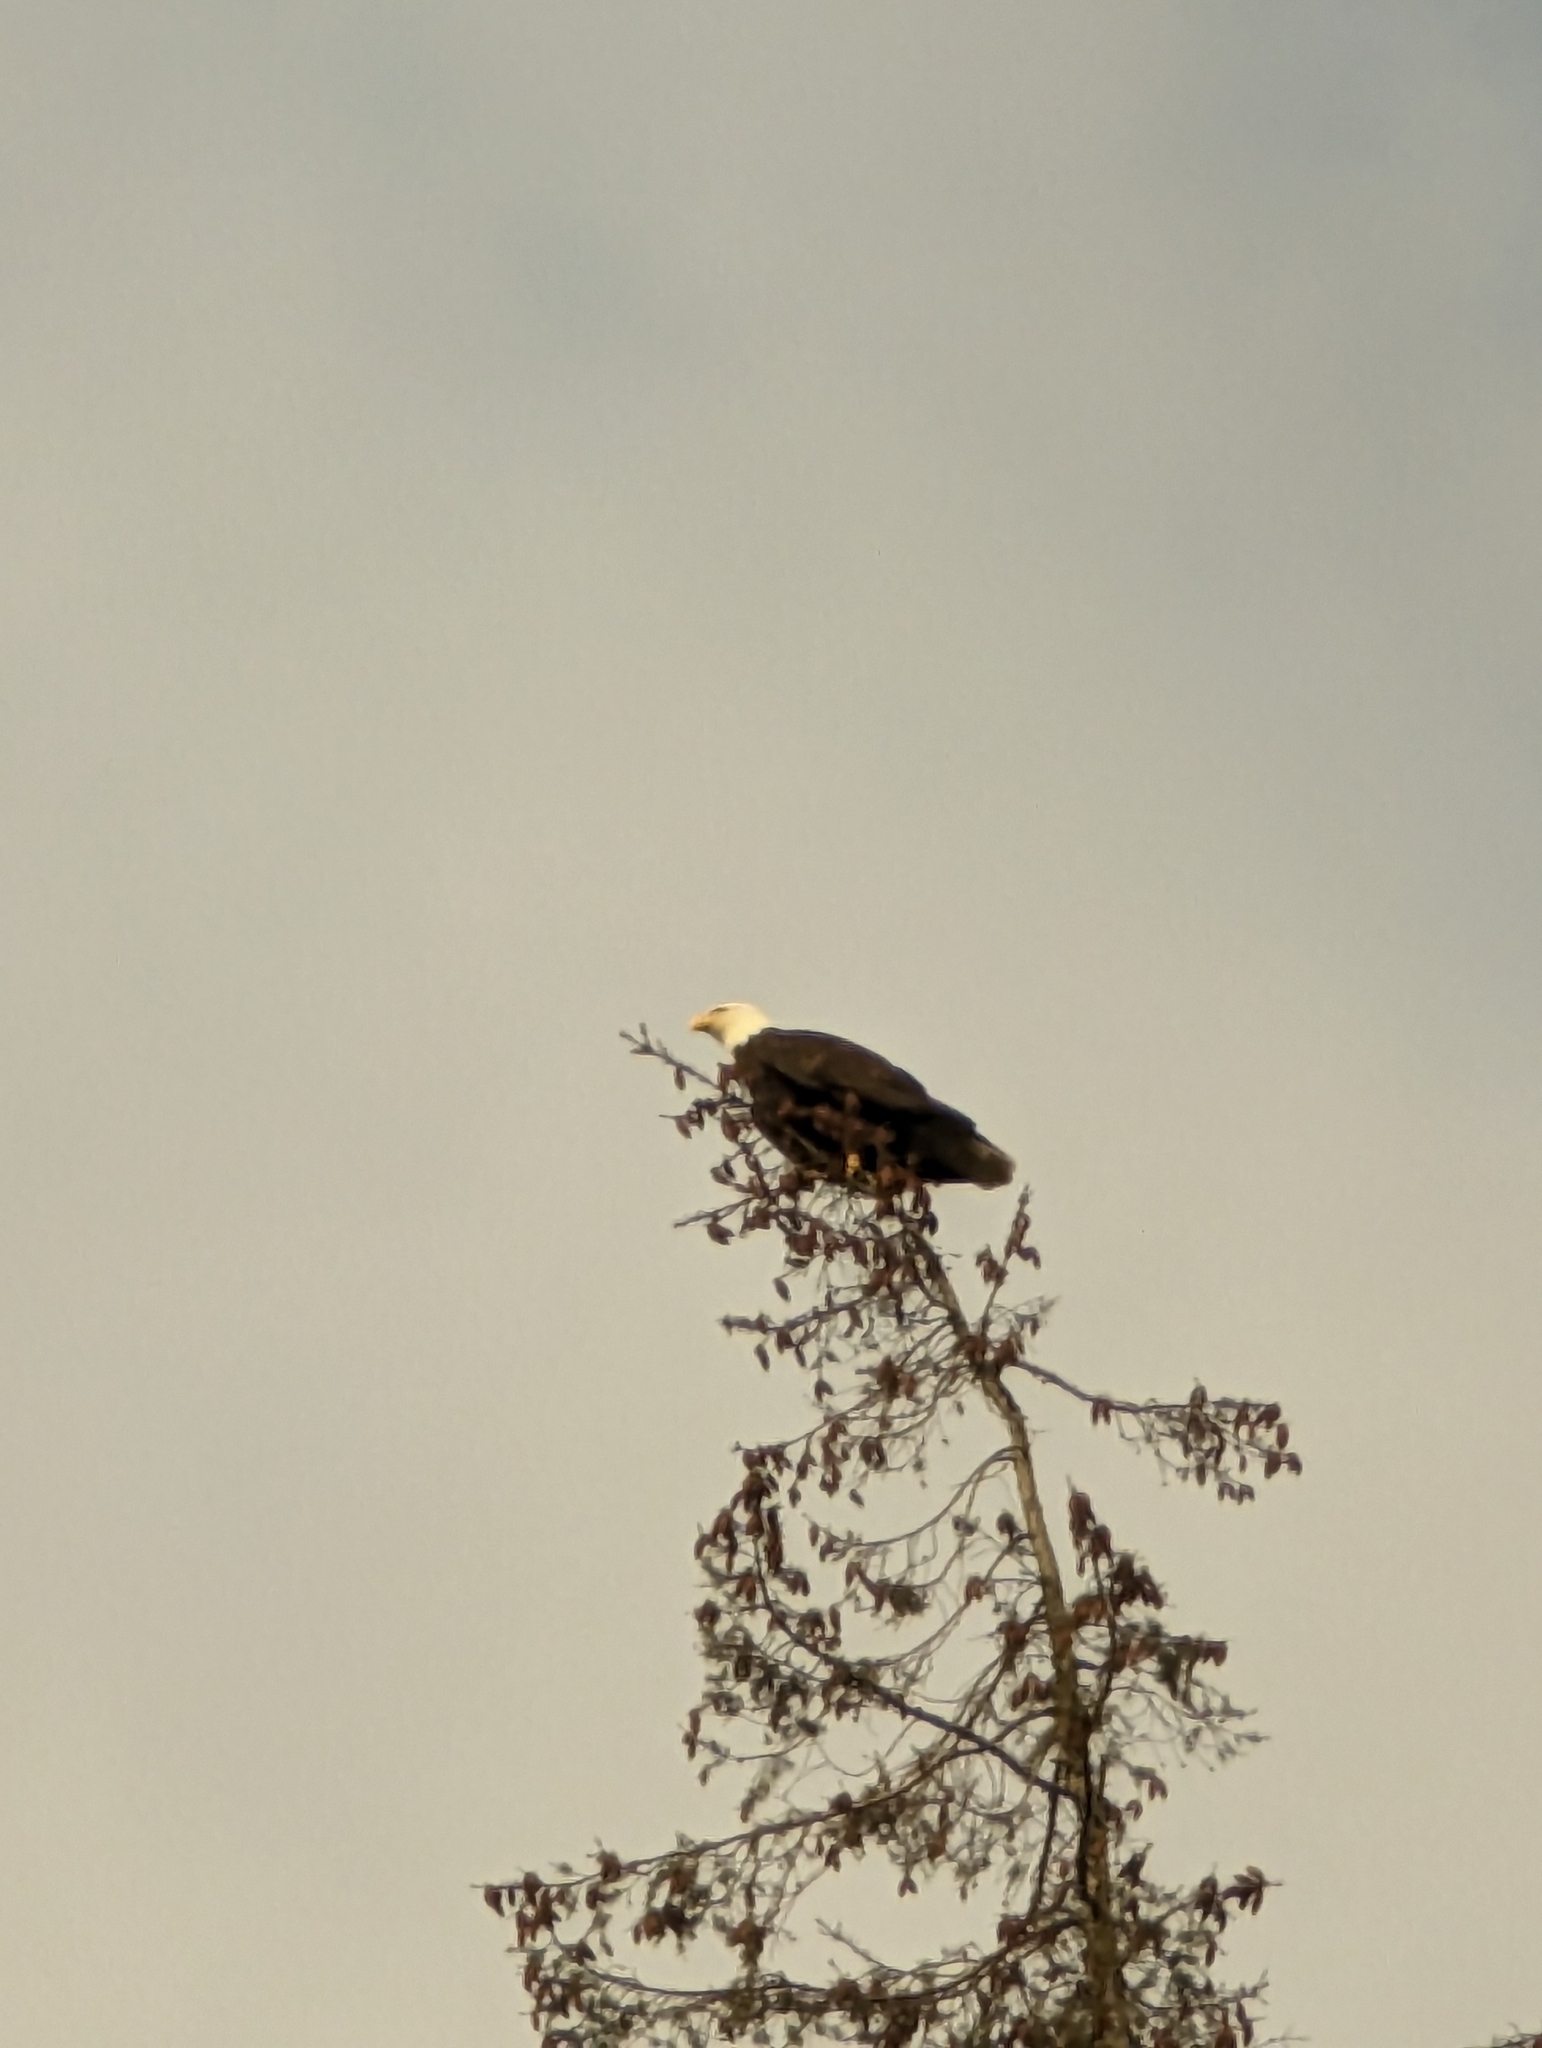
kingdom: Animalia
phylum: Chordata
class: Aves
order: Accipitriformes
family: Accipitridae
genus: Haliaeetus
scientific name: Haliaeetus leucocephalus
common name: Bald eagle
